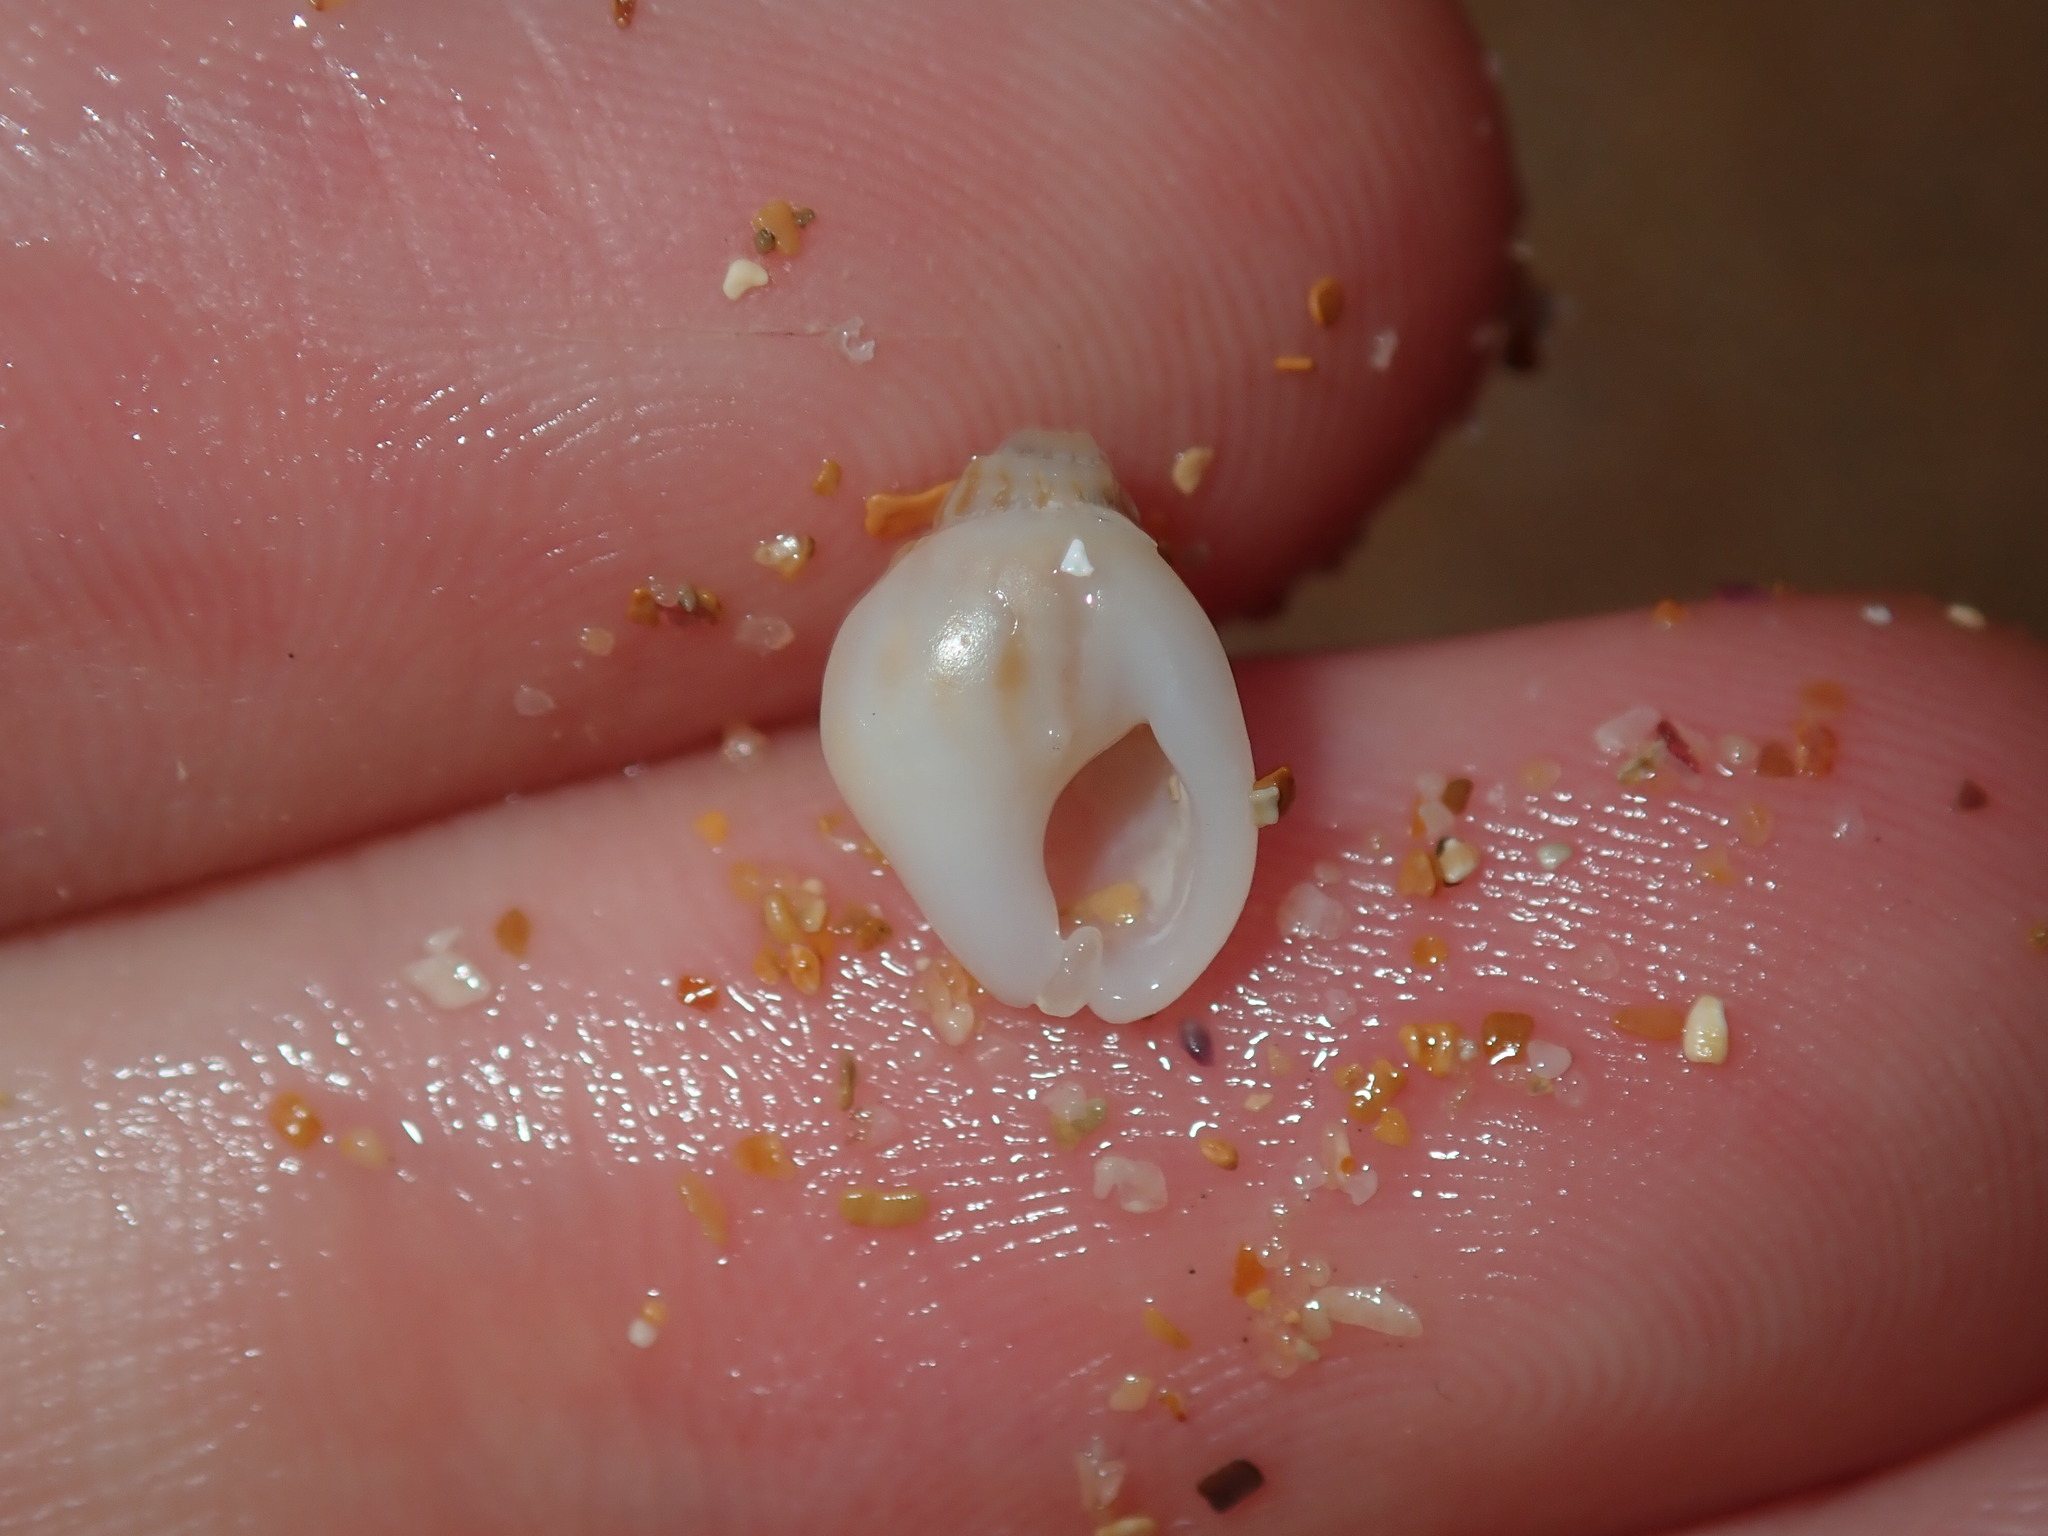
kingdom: Animalia
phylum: Mollusca
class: Gastropoda
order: Neogastropoda
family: Nassariidae
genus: Nassarius
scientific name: Nassarius jonasii
